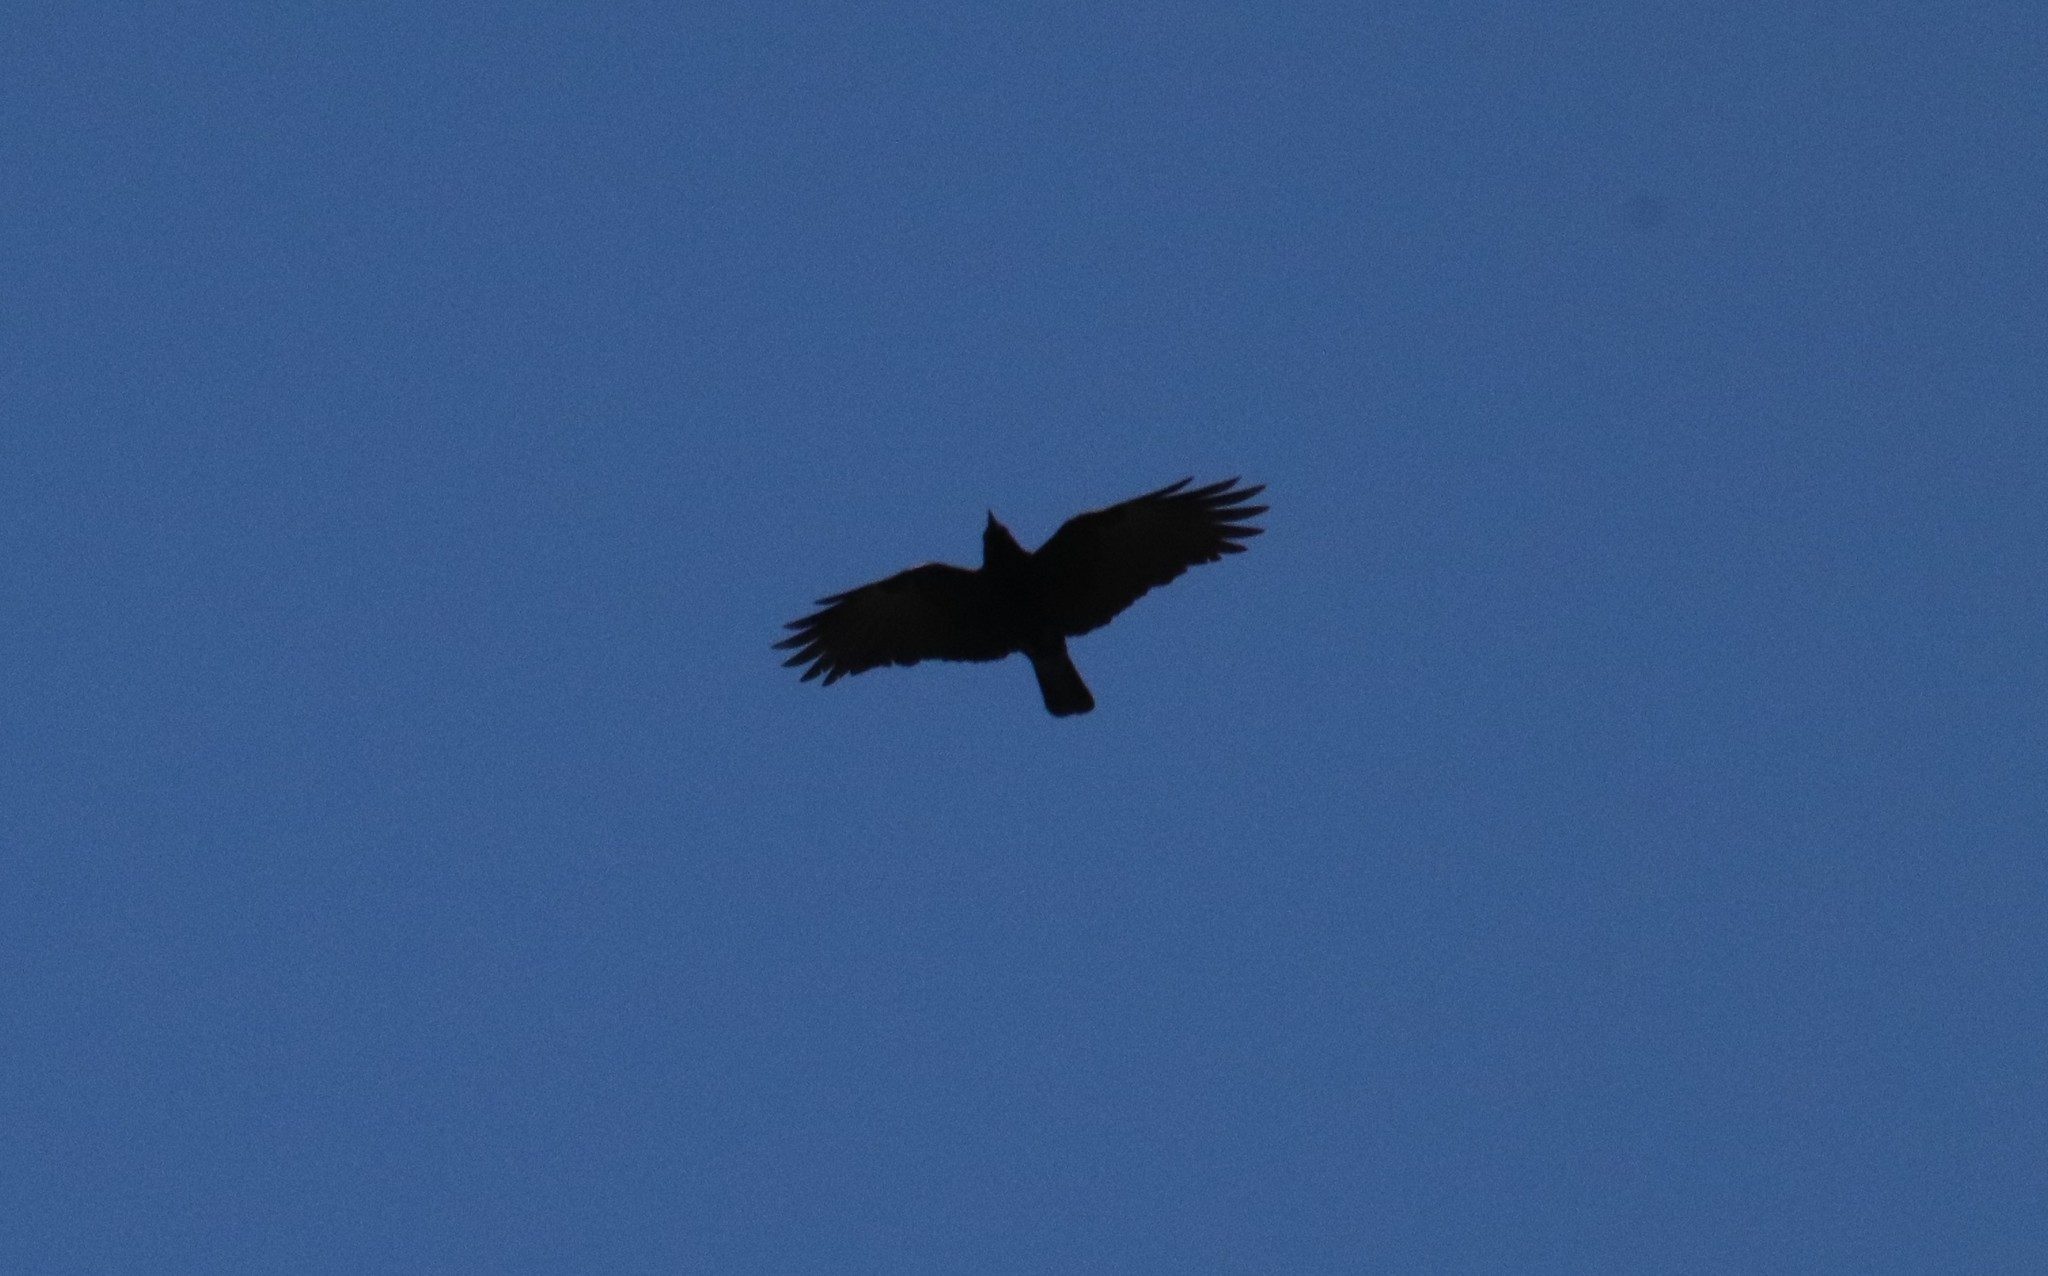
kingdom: Animalia
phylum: Chordata
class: Aves
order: Passeriformes
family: Corvidae
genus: Corvus
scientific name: Corvus brachyrhynchos
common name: American crow
